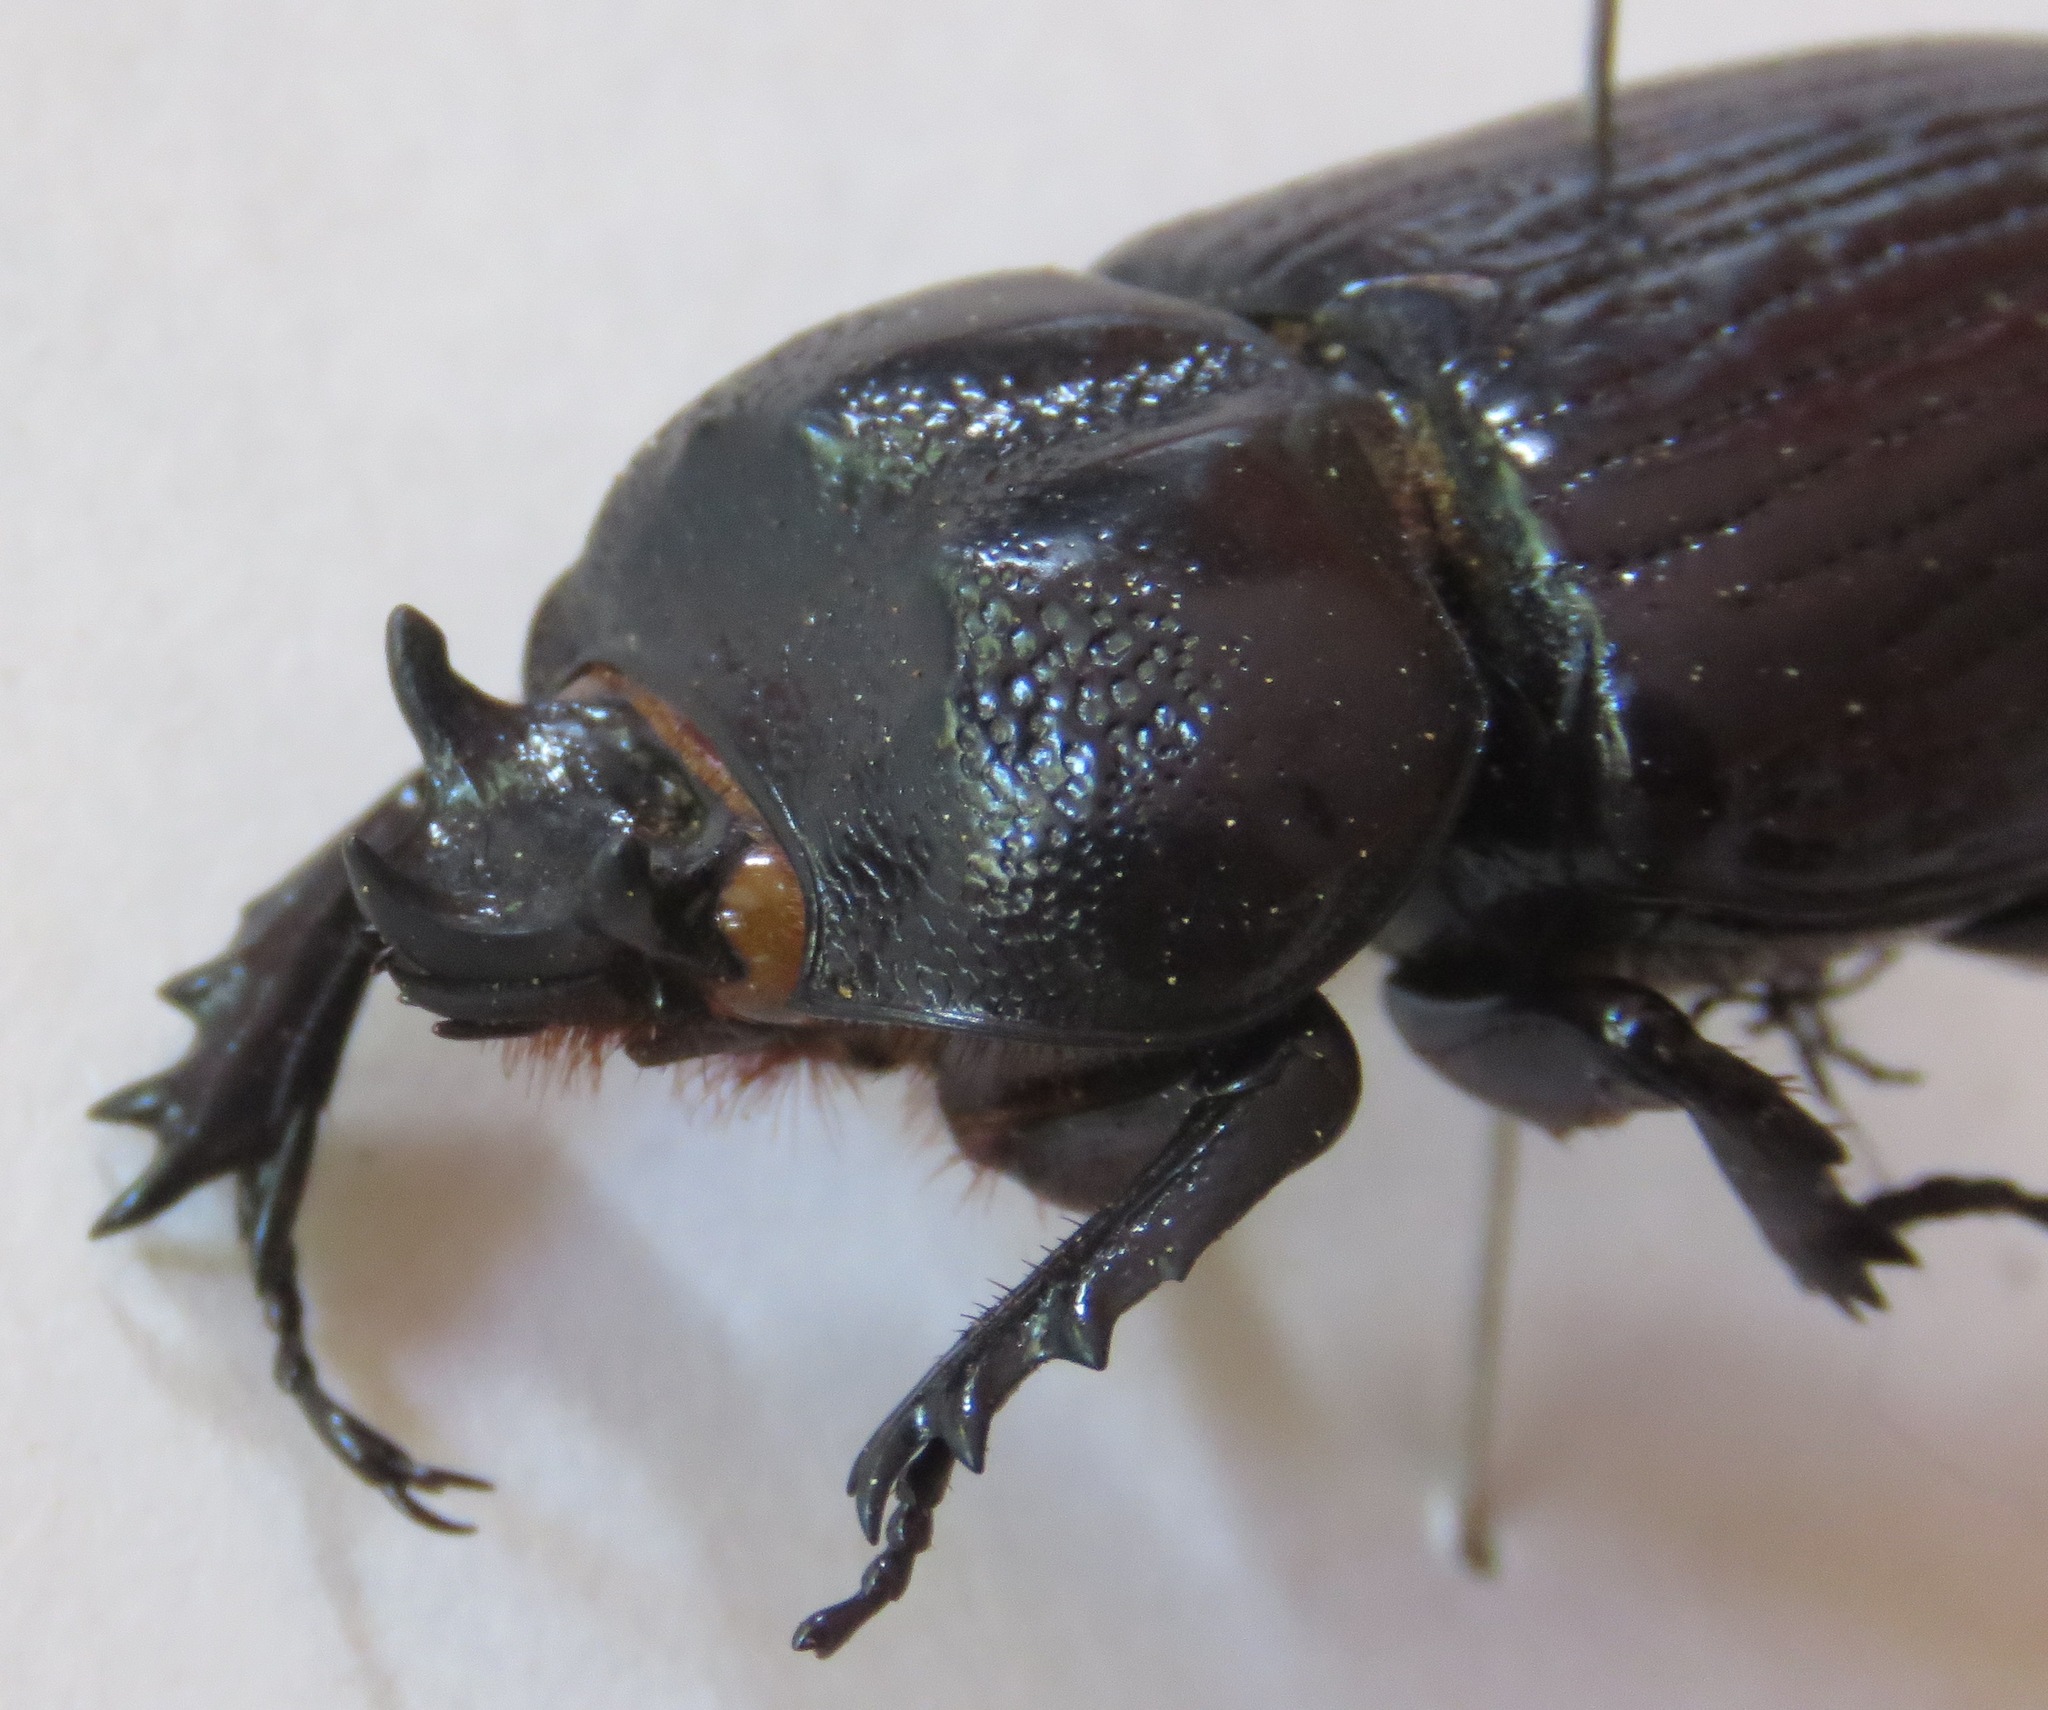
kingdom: Animalia
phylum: Arthropoda
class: Insecta
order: Coleoptera
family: Scarabaeidae
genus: Homophileurus
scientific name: Homophileurus tricuspis
